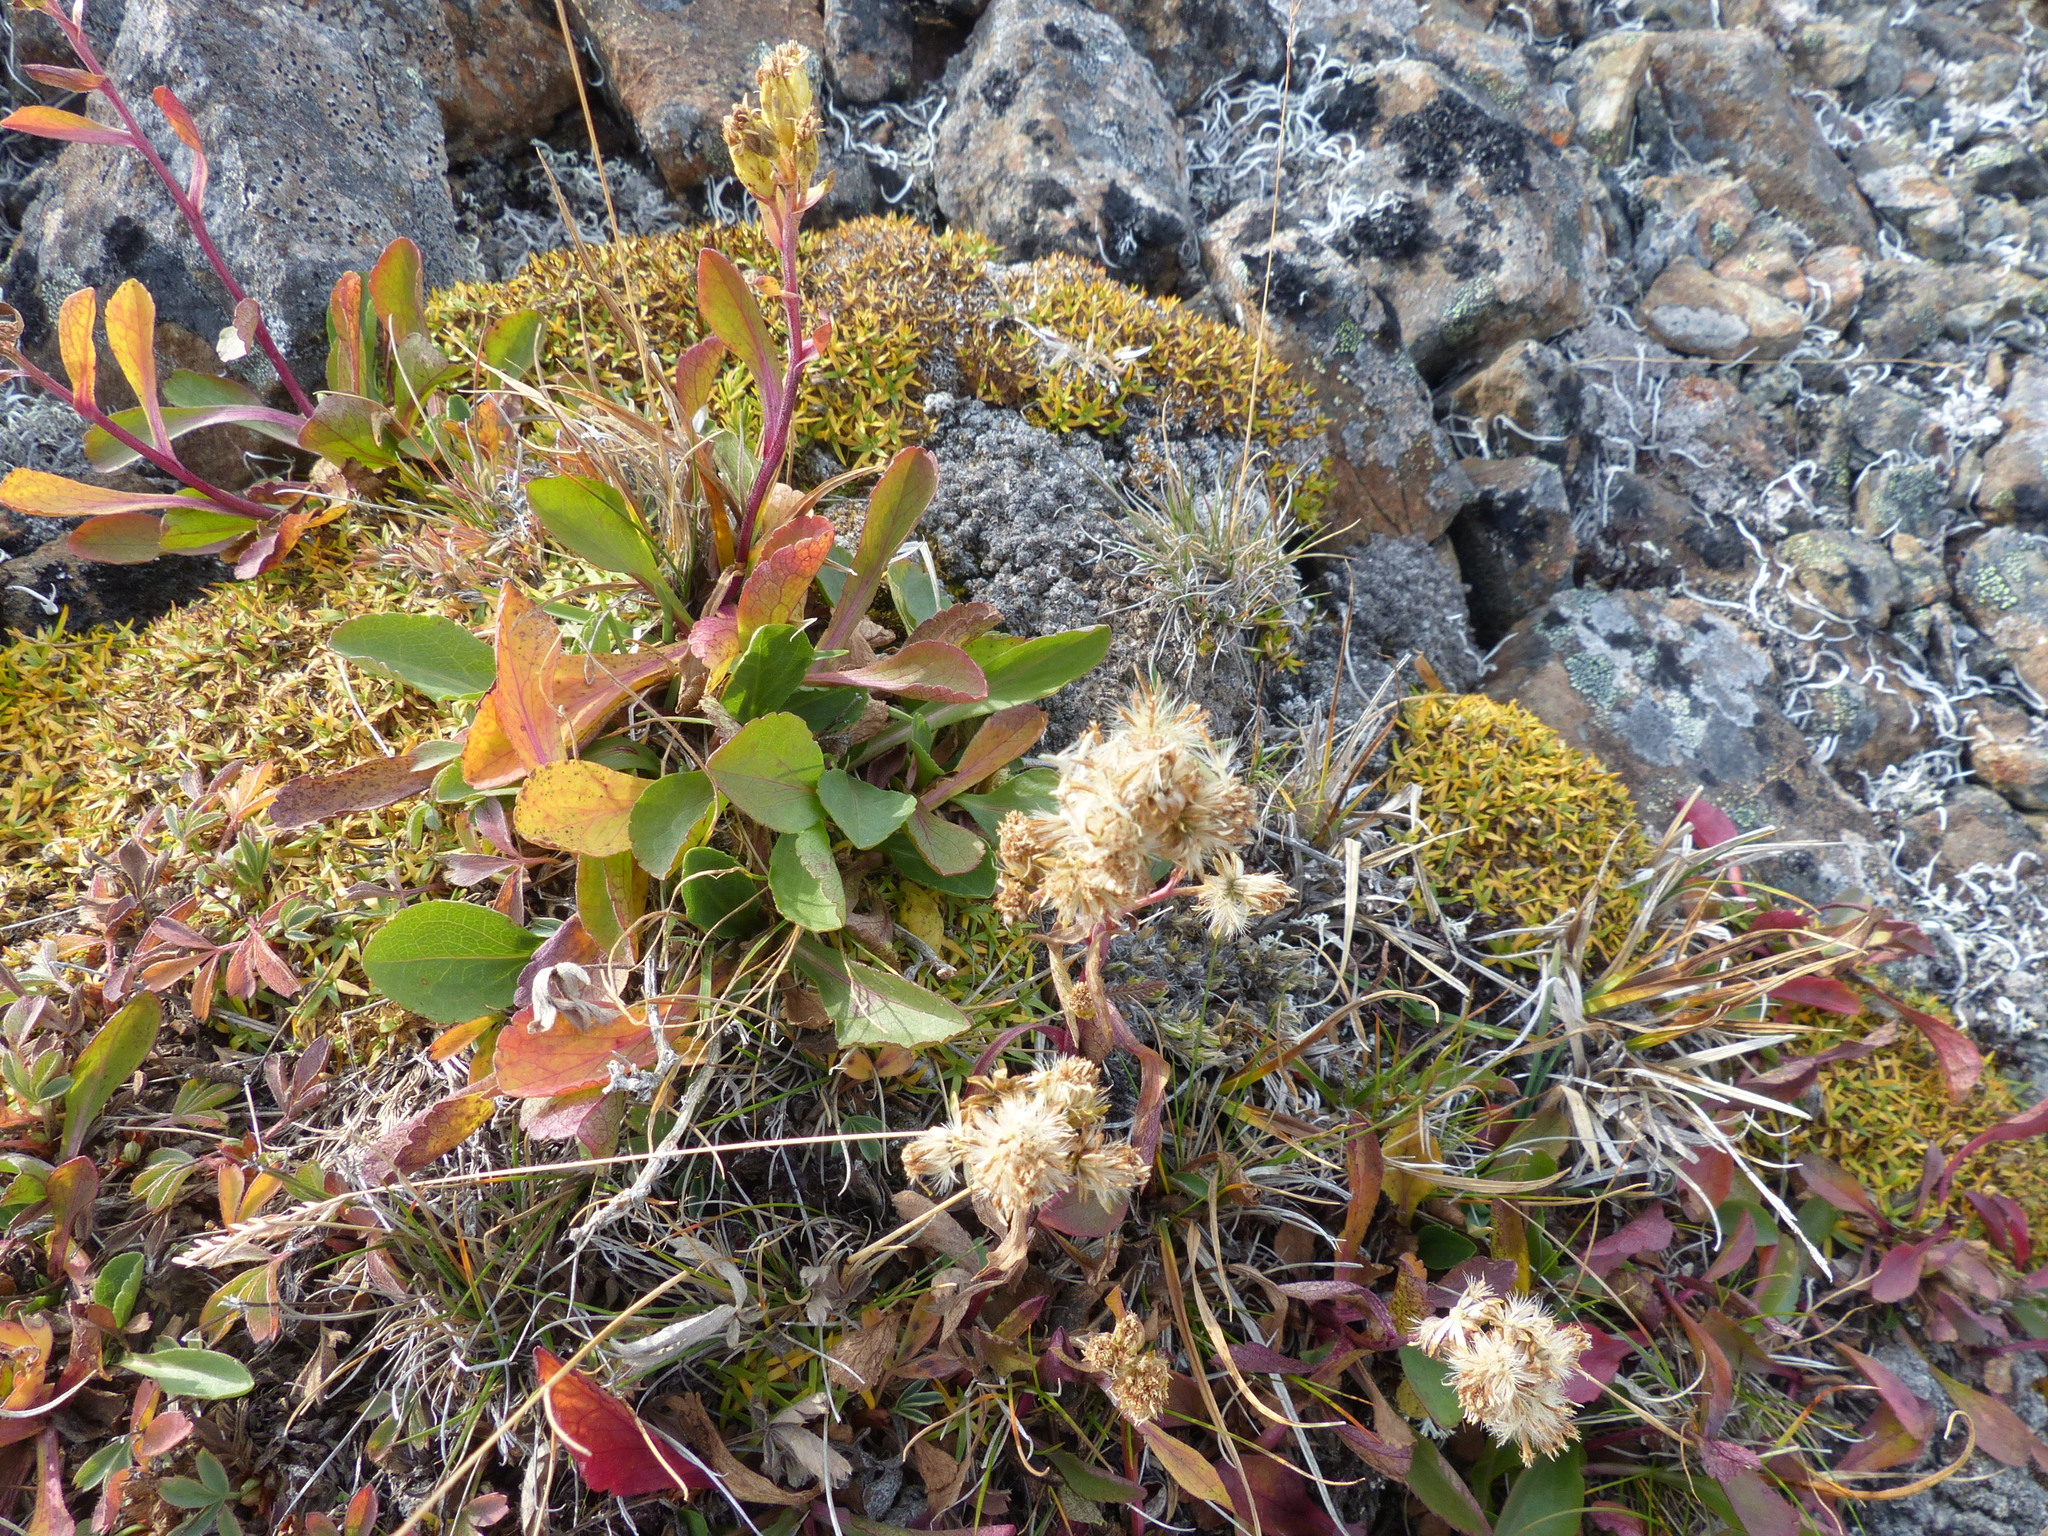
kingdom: Plantae
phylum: Tracheophyta
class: Magnoliopsida
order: Asterales
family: Asteraceae
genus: Solidago
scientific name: Solidago multiradiata
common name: Northern goldenrod
